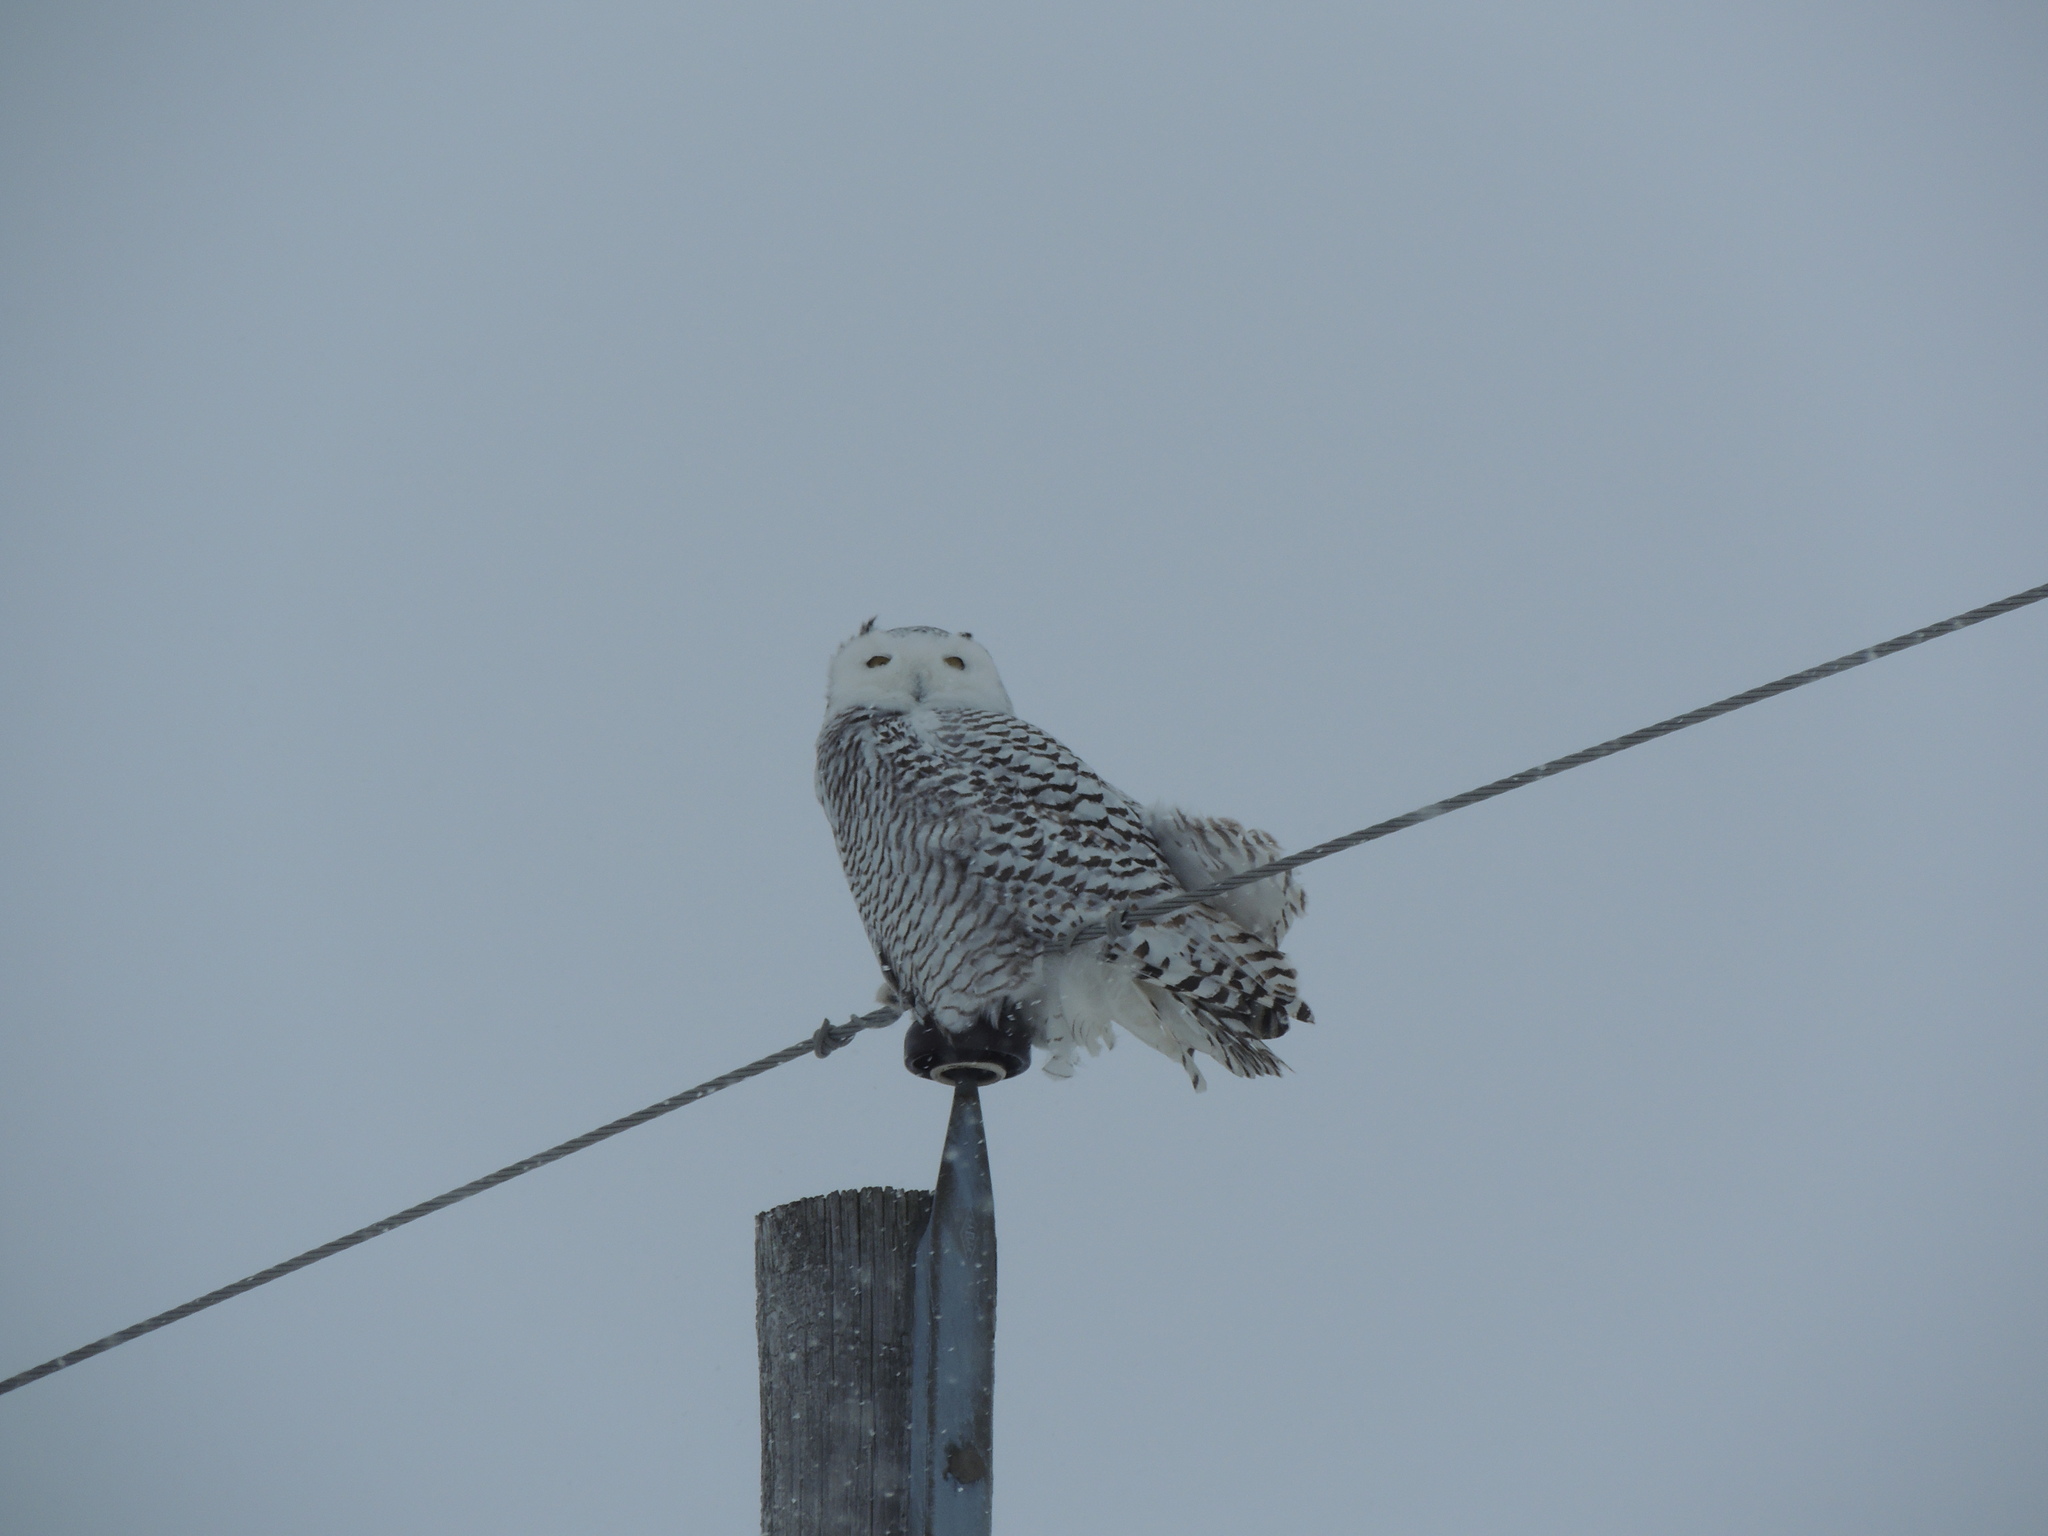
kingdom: Animalia
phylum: Chordata
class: Aves
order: Strigiformes
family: Strigidae
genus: Bubo
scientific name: Bubo scandiacus
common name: Snowy owl
